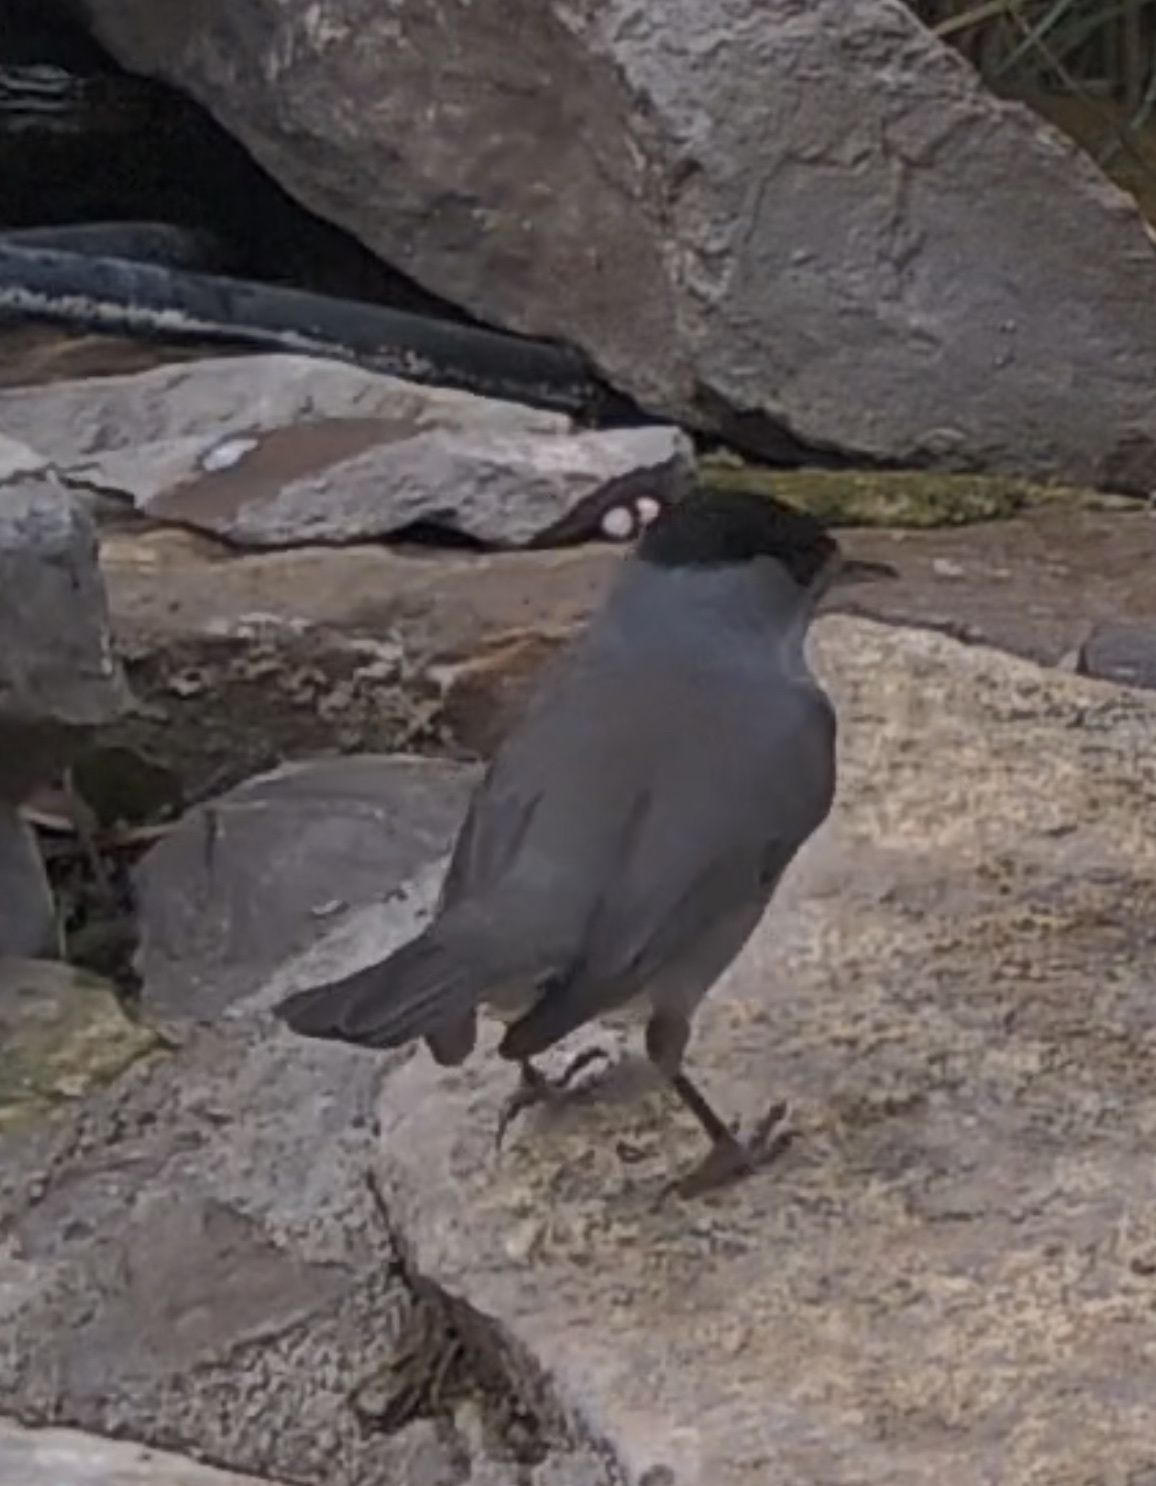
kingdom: Animalia
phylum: Chordata
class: Aves
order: Passeriformes
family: Sylviidae
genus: Sylvia
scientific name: Sylvia atricapilla
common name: Eurasian blackcap
